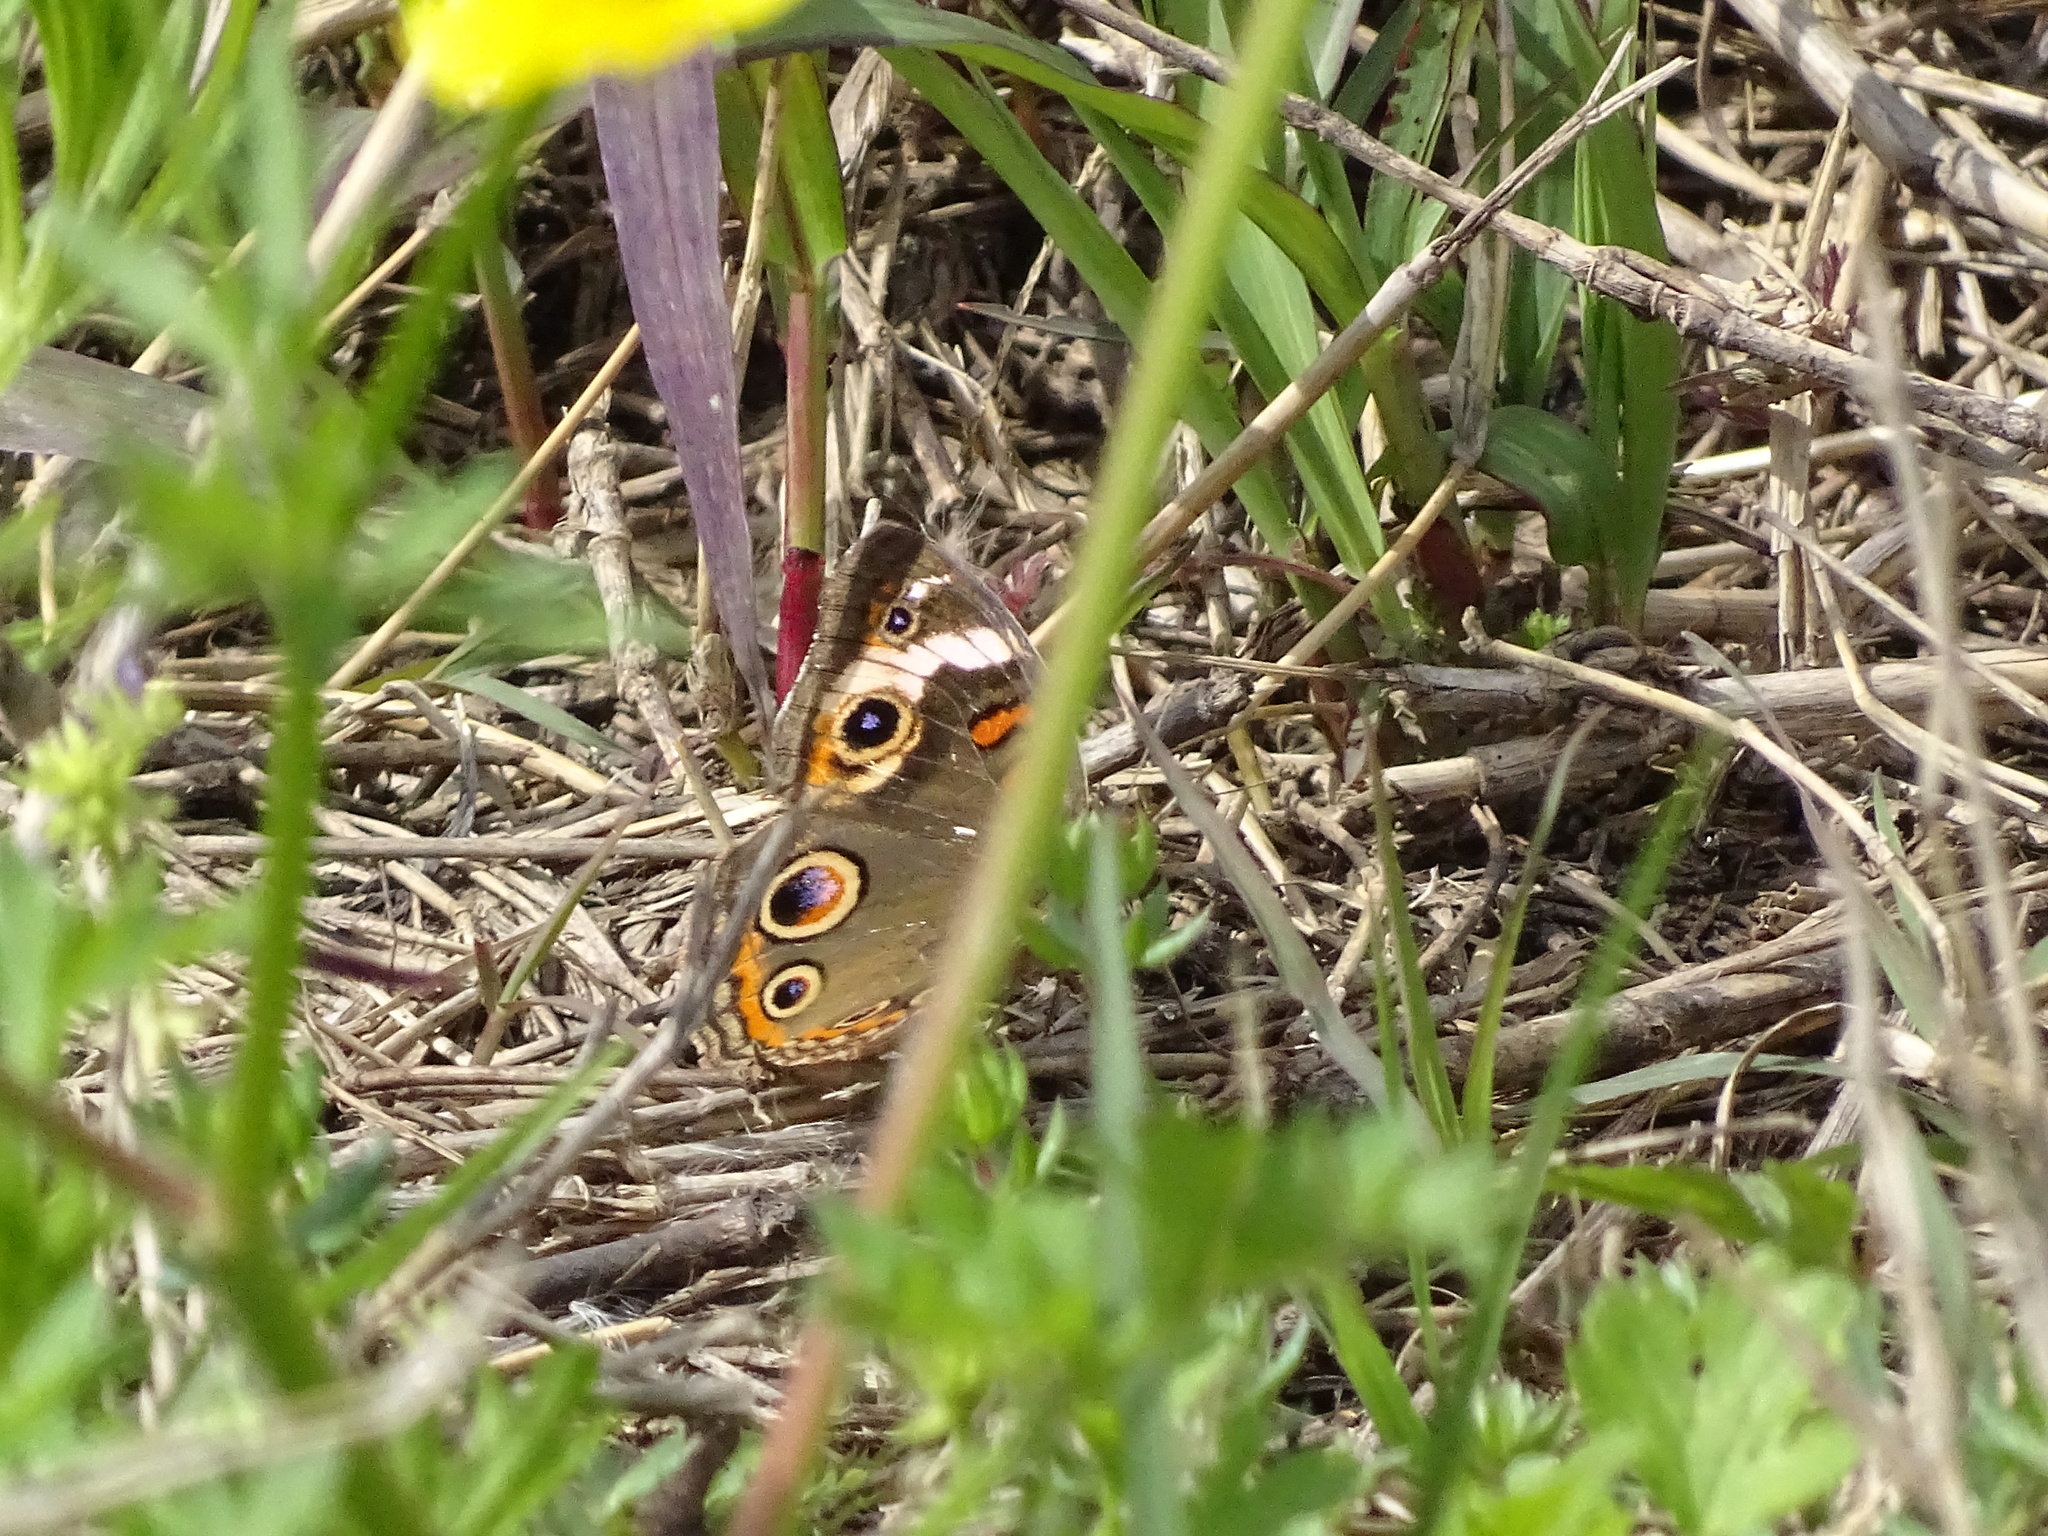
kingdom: Animalia
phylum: Arthropoda
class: Insecta
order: Lepidoptera
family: Nymphalidae
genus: Junonia
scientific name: Junonia coenia
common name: Common buckeye
